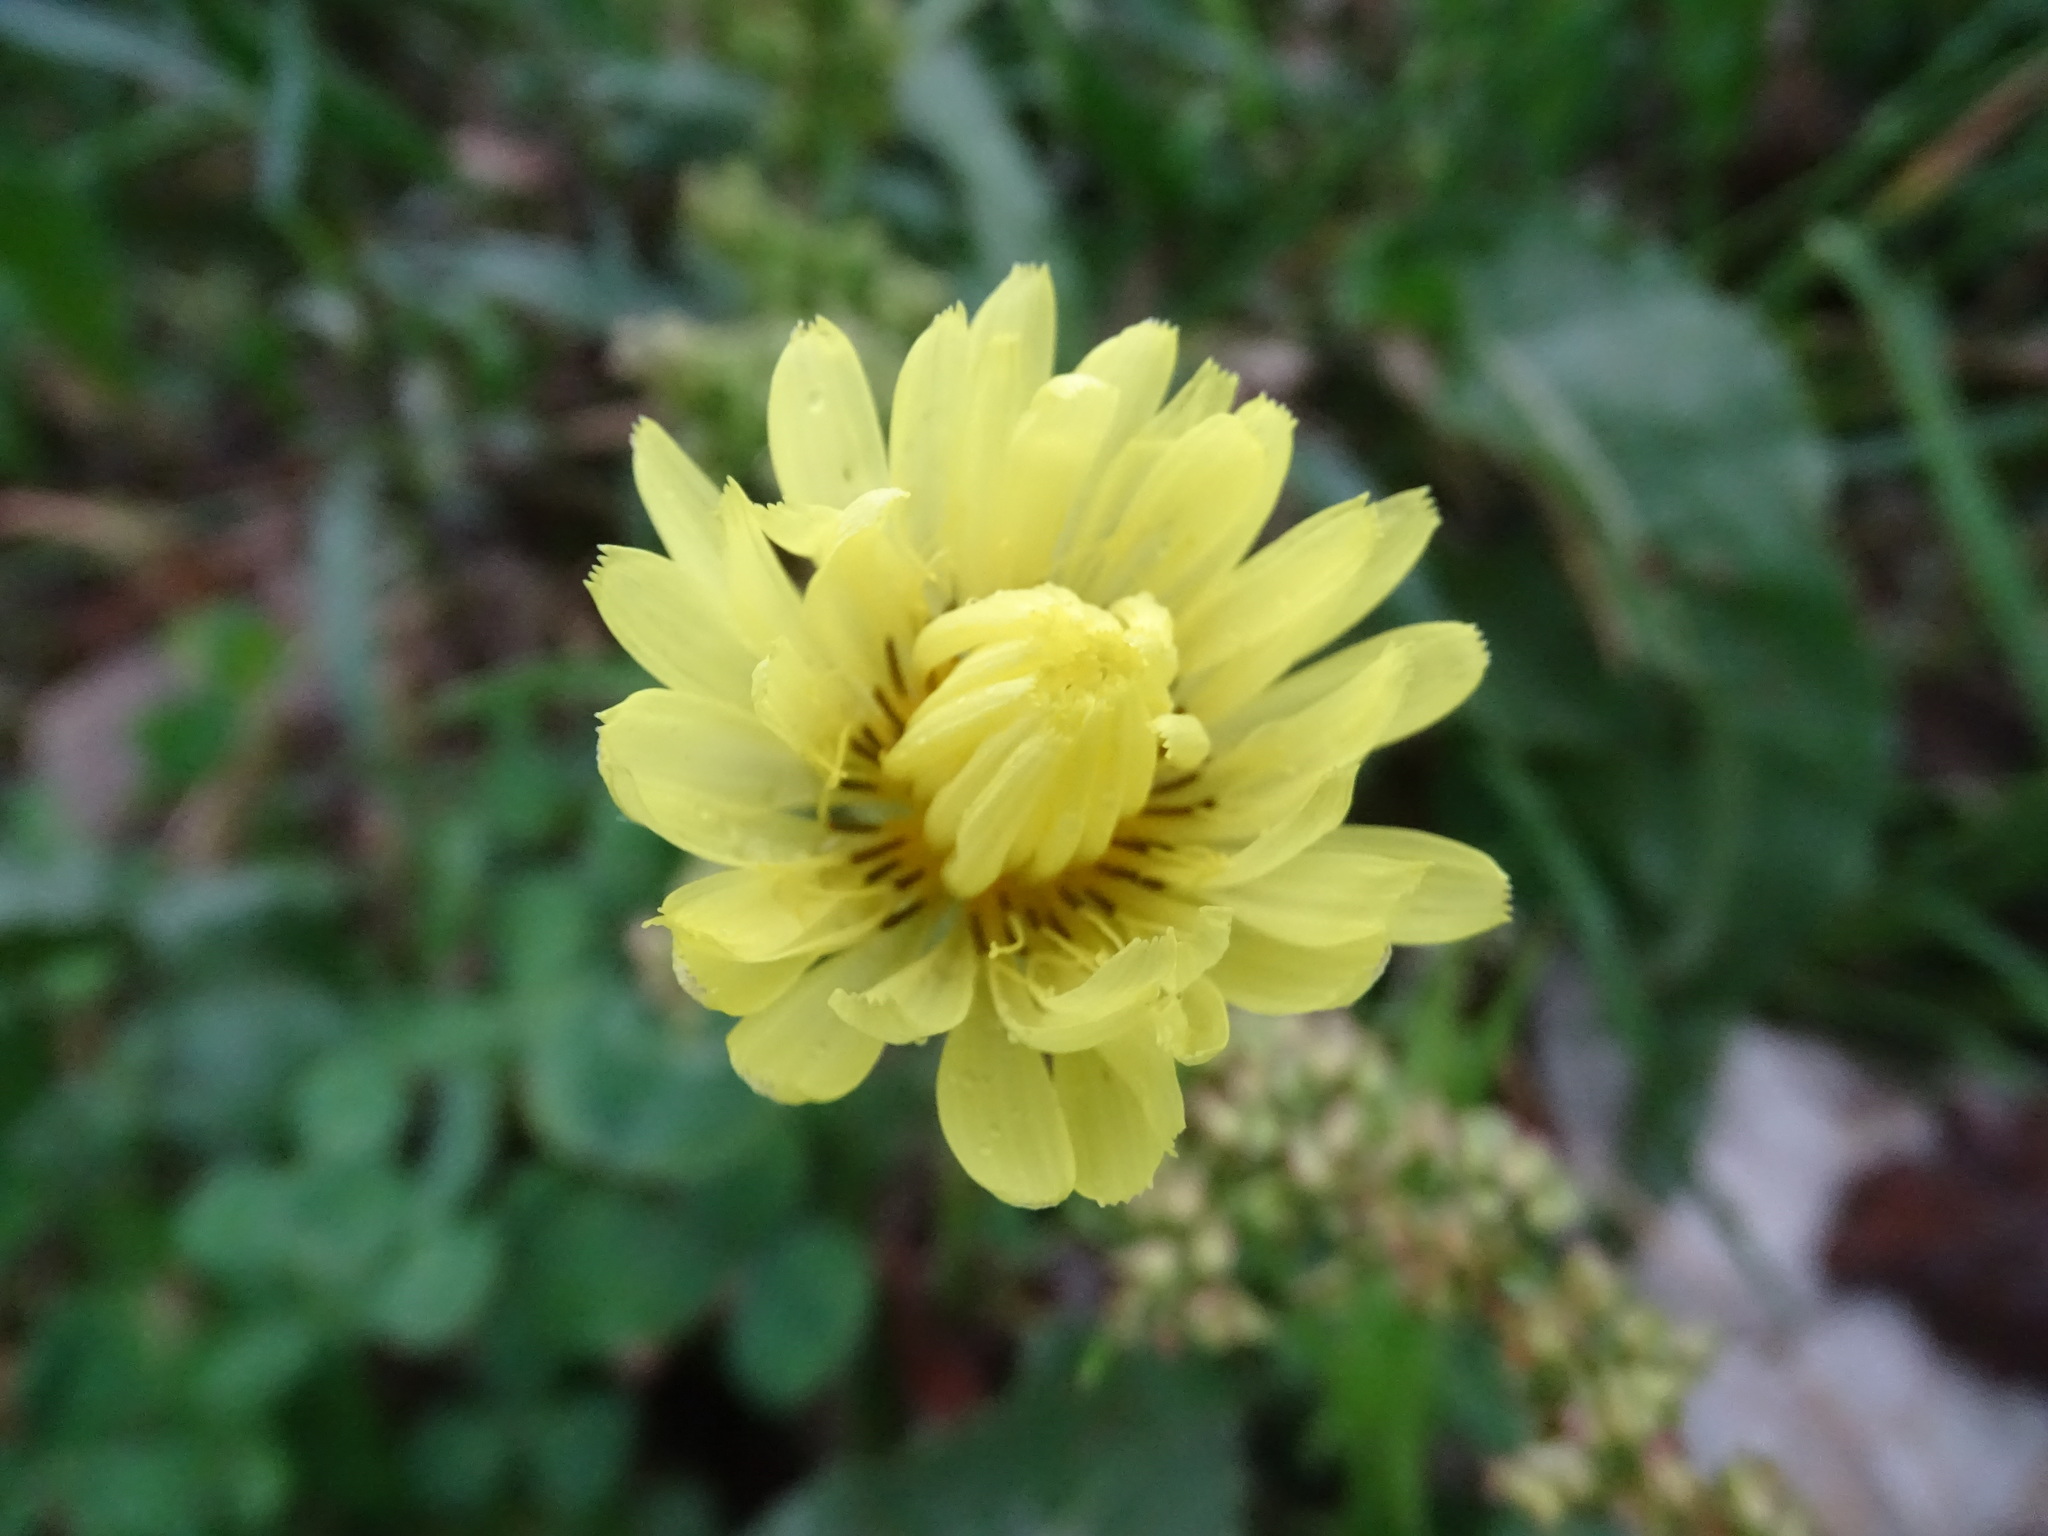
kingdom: Plantae
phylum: Tracheophyta
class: Magnoliopsida
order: Asterales
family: Asteraceae
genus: Pyrrhopappus
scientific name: Pyrrhopappus pauciflorus
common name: Texas false dandelion
